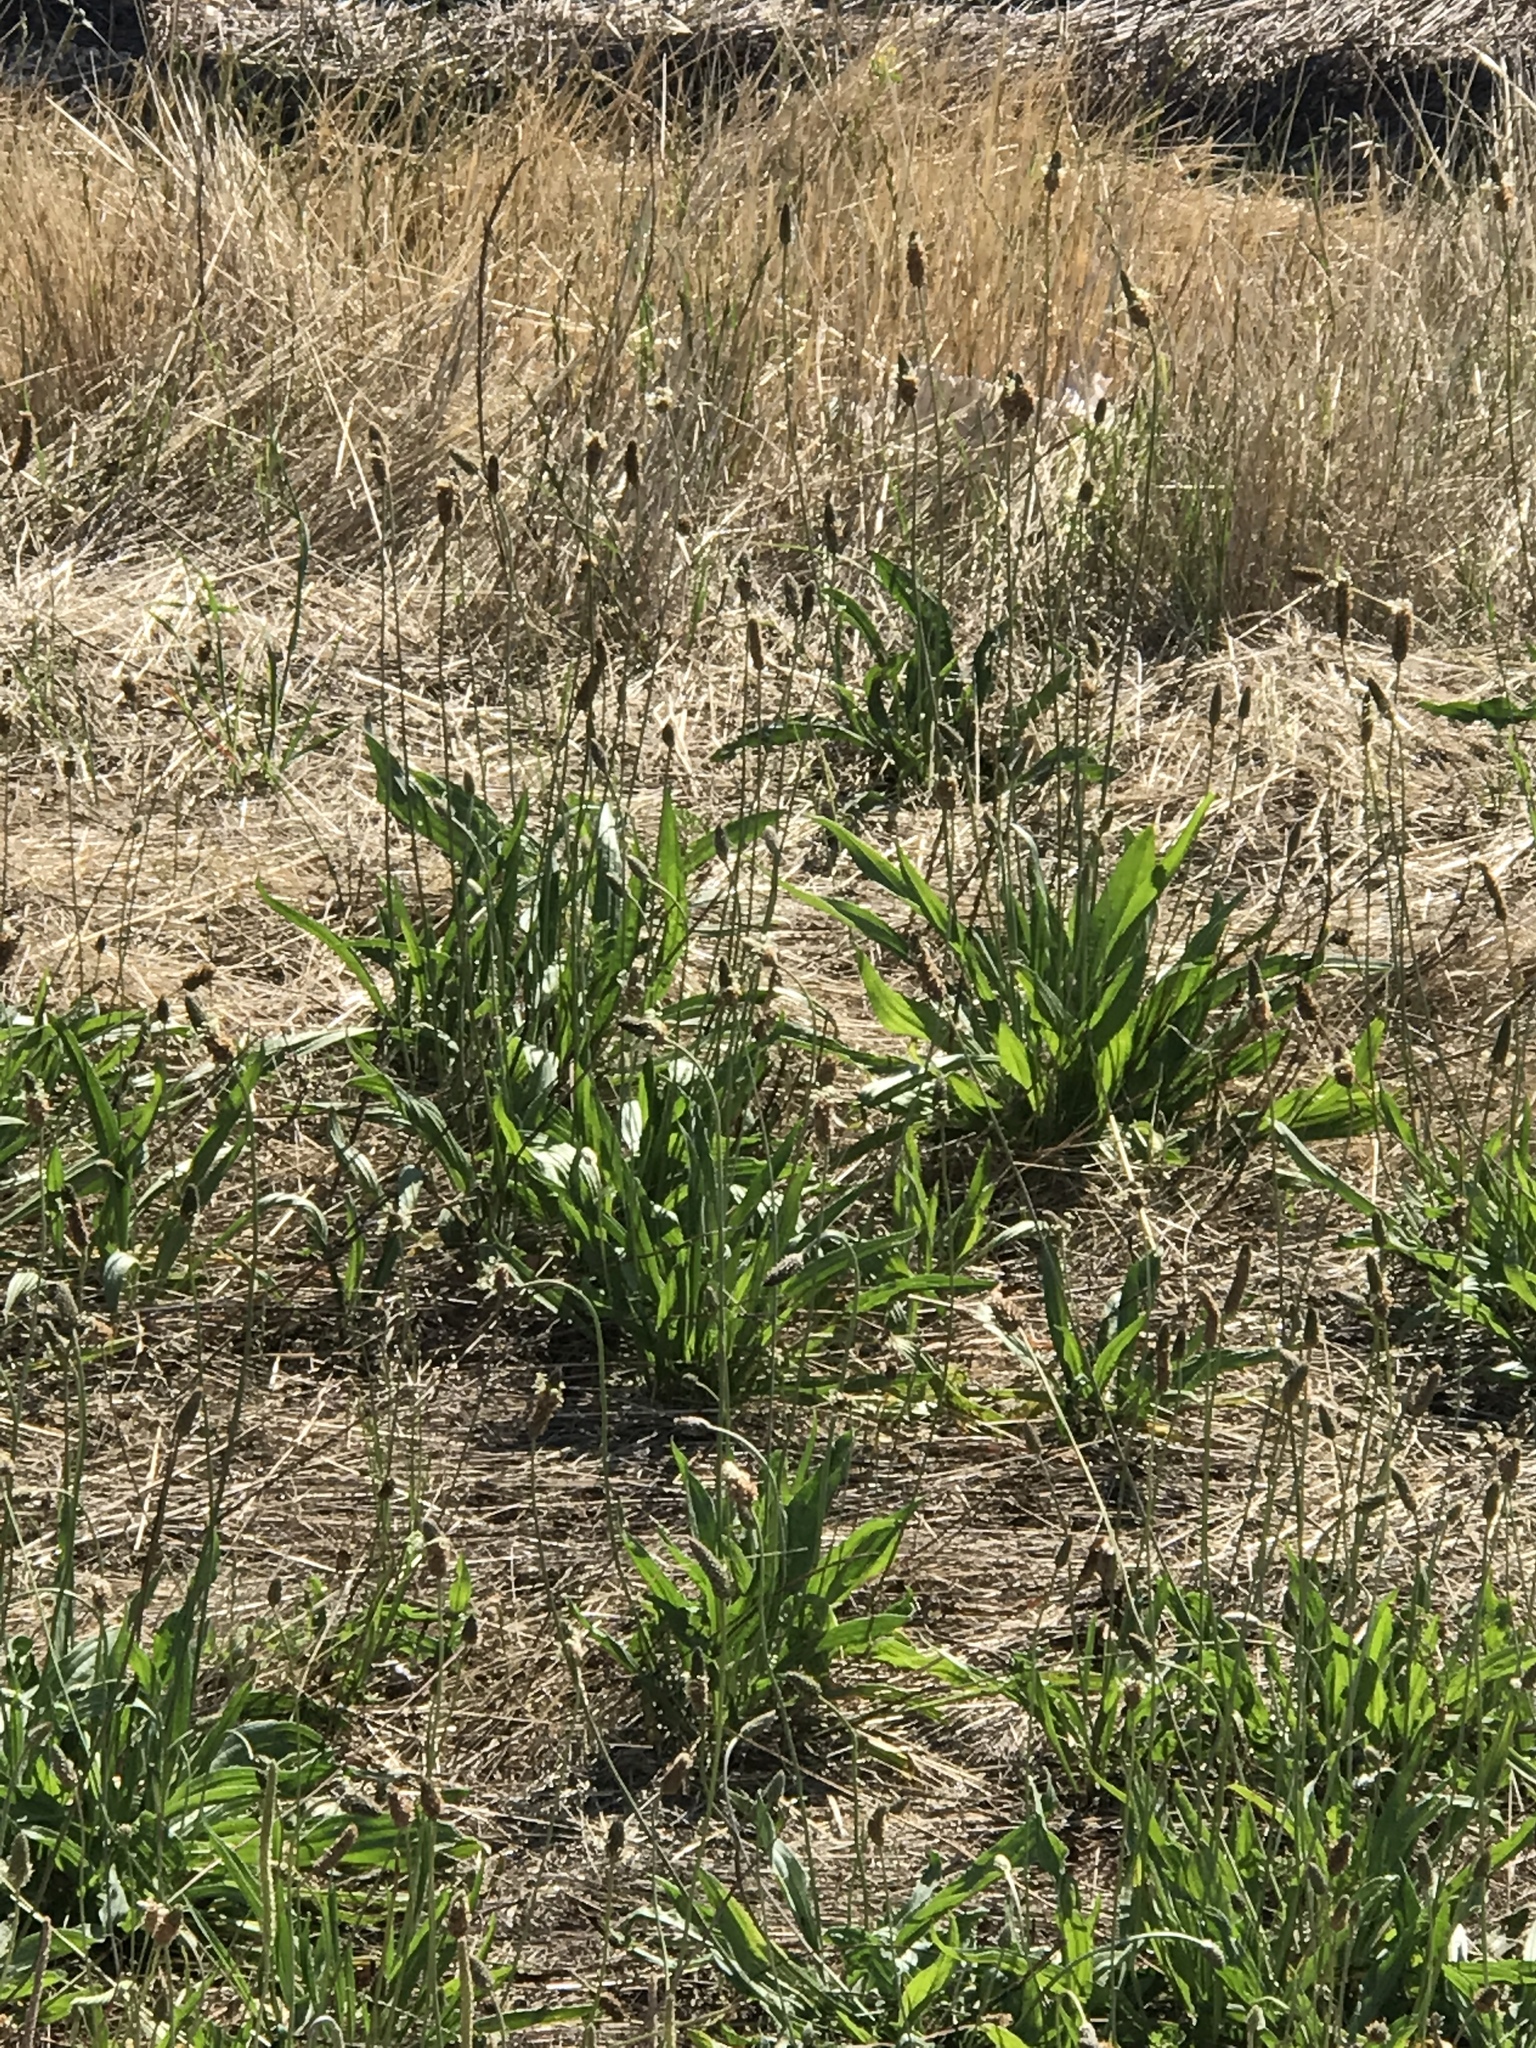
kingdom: Plantae
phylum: Tracheophyta
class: Magnoliopsida
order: Lamiales
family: Plantaginaceae
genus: Plantago
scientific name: Plantago lanceolata
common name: Ribwort plantain
